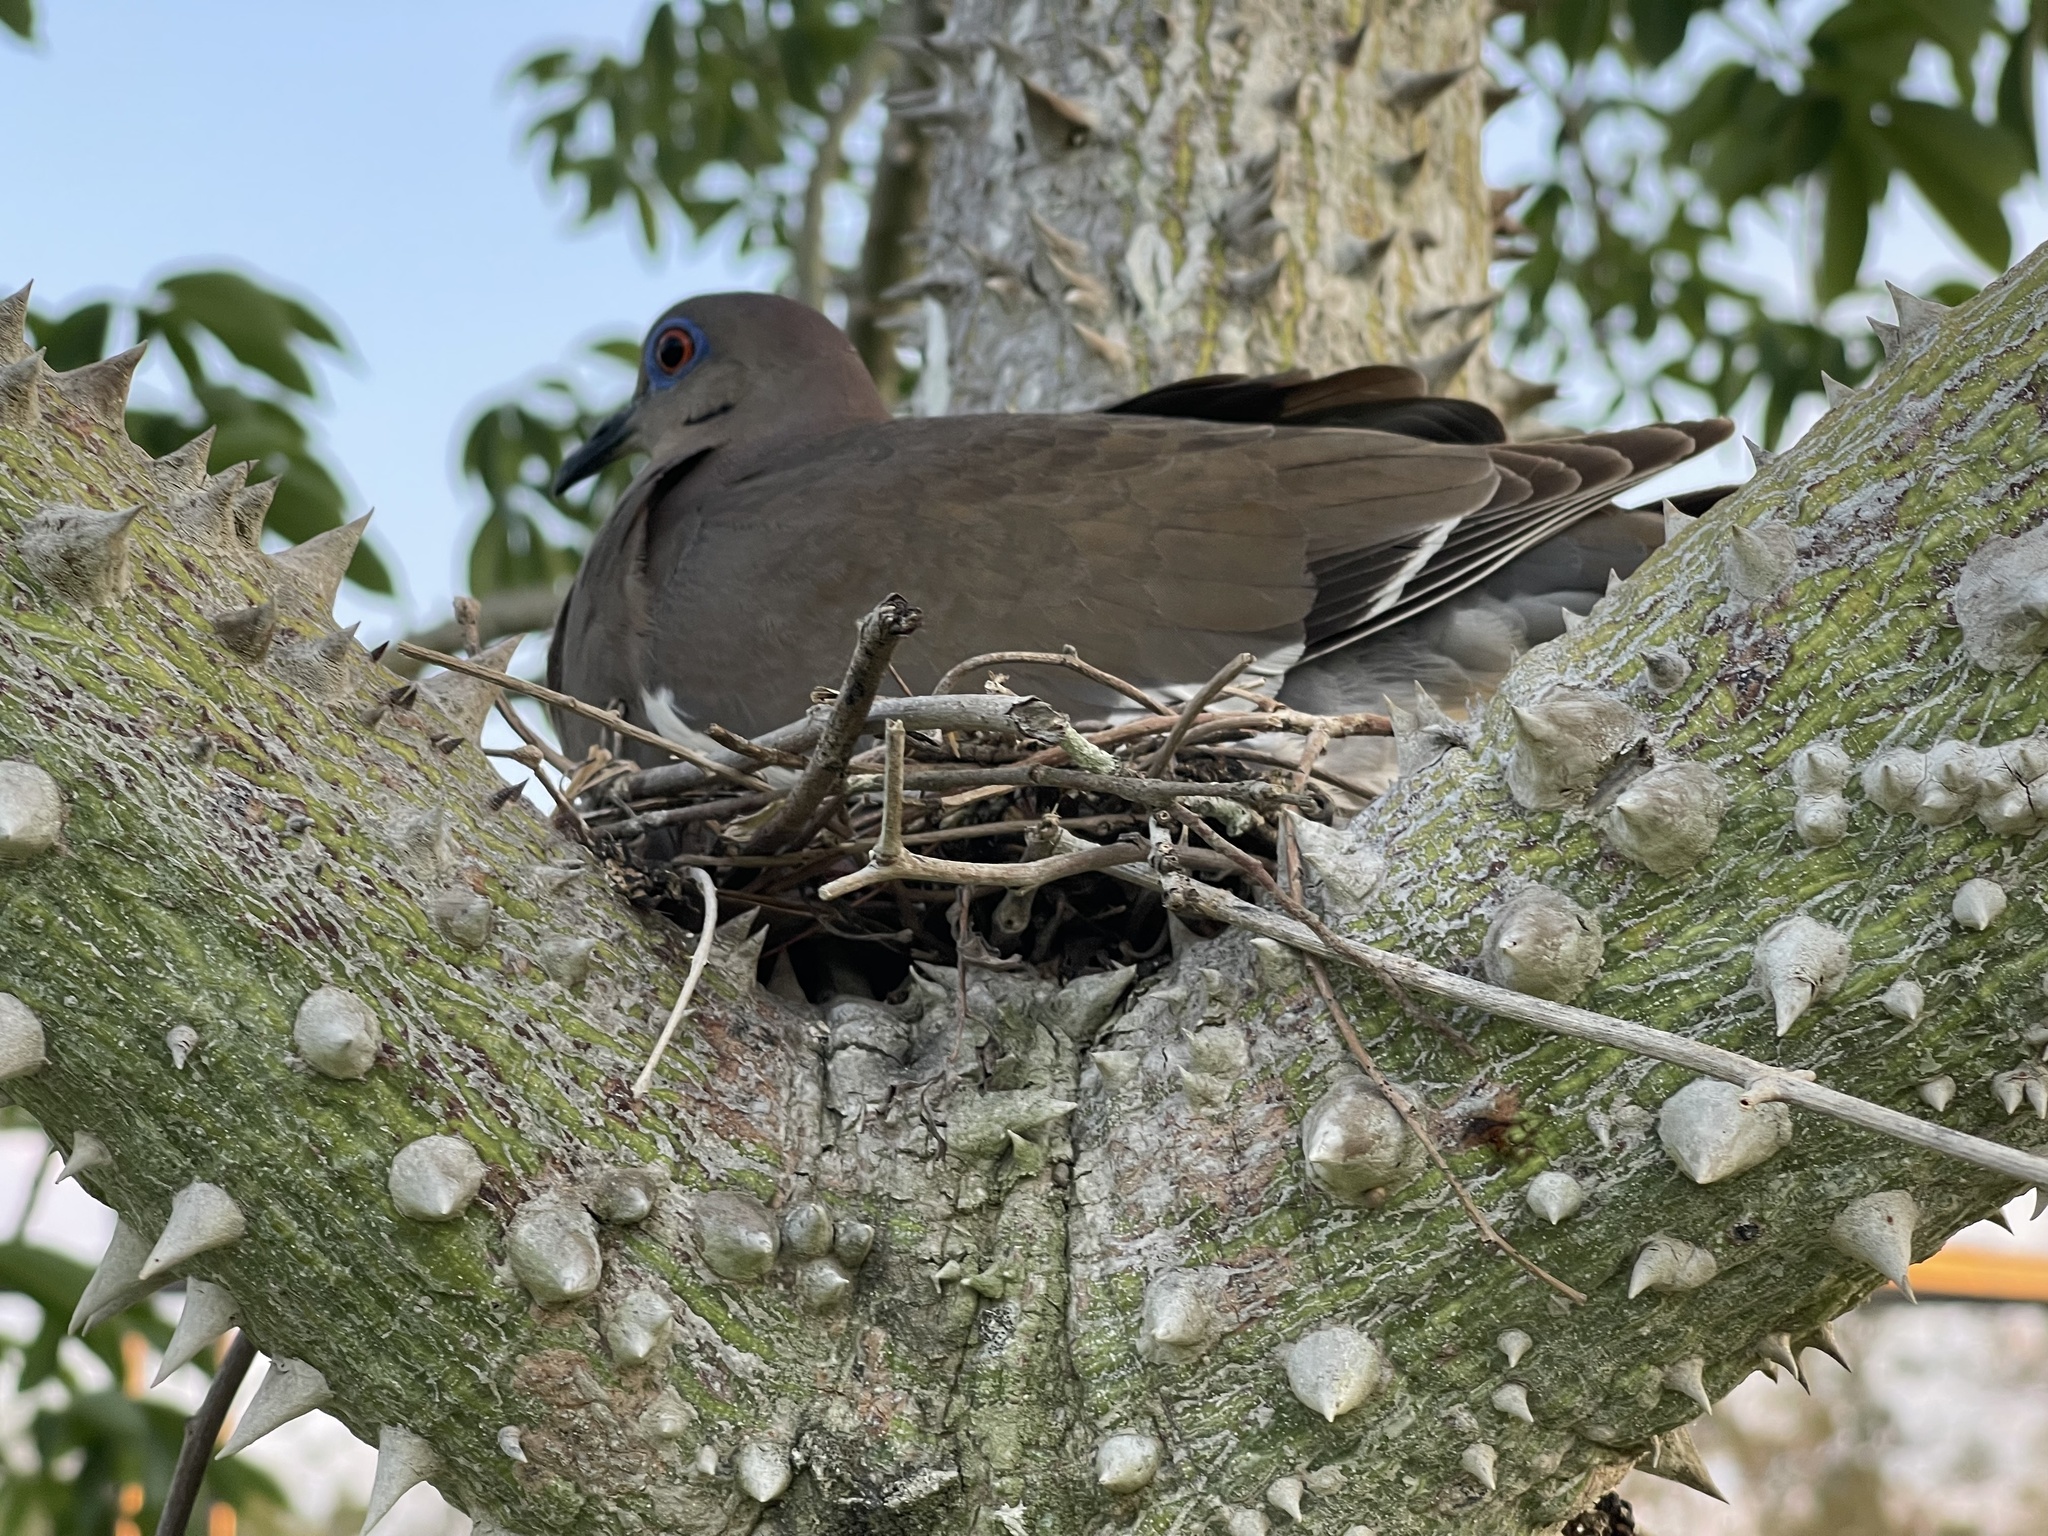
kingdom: Animalia
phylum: Chordata
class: Aves
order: Columbiformes
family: Columbidae
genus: Zenaida
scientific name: Zenaida asiatica
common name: White-winged dove
